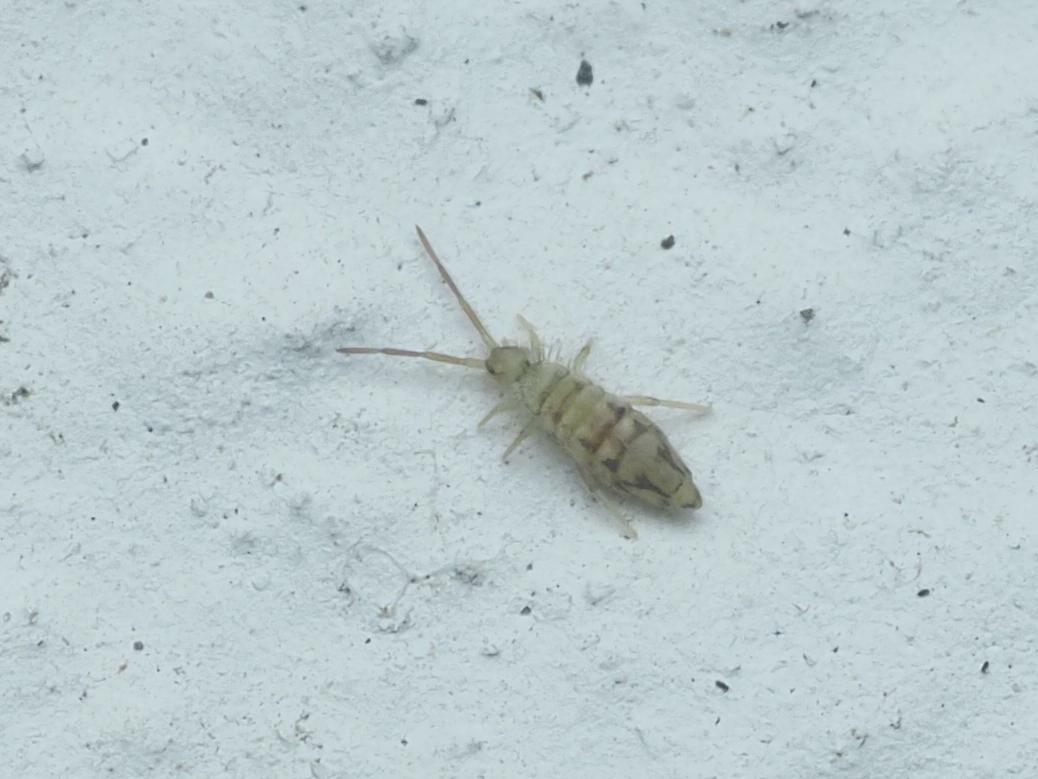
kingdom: Animalia
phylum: Arthropoda
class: Collembola
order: Entomobryomorpha
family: Entomobryidae
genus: Entomobrya
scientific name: Entomobrya nivalis
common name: Cosmopolitan springtail
